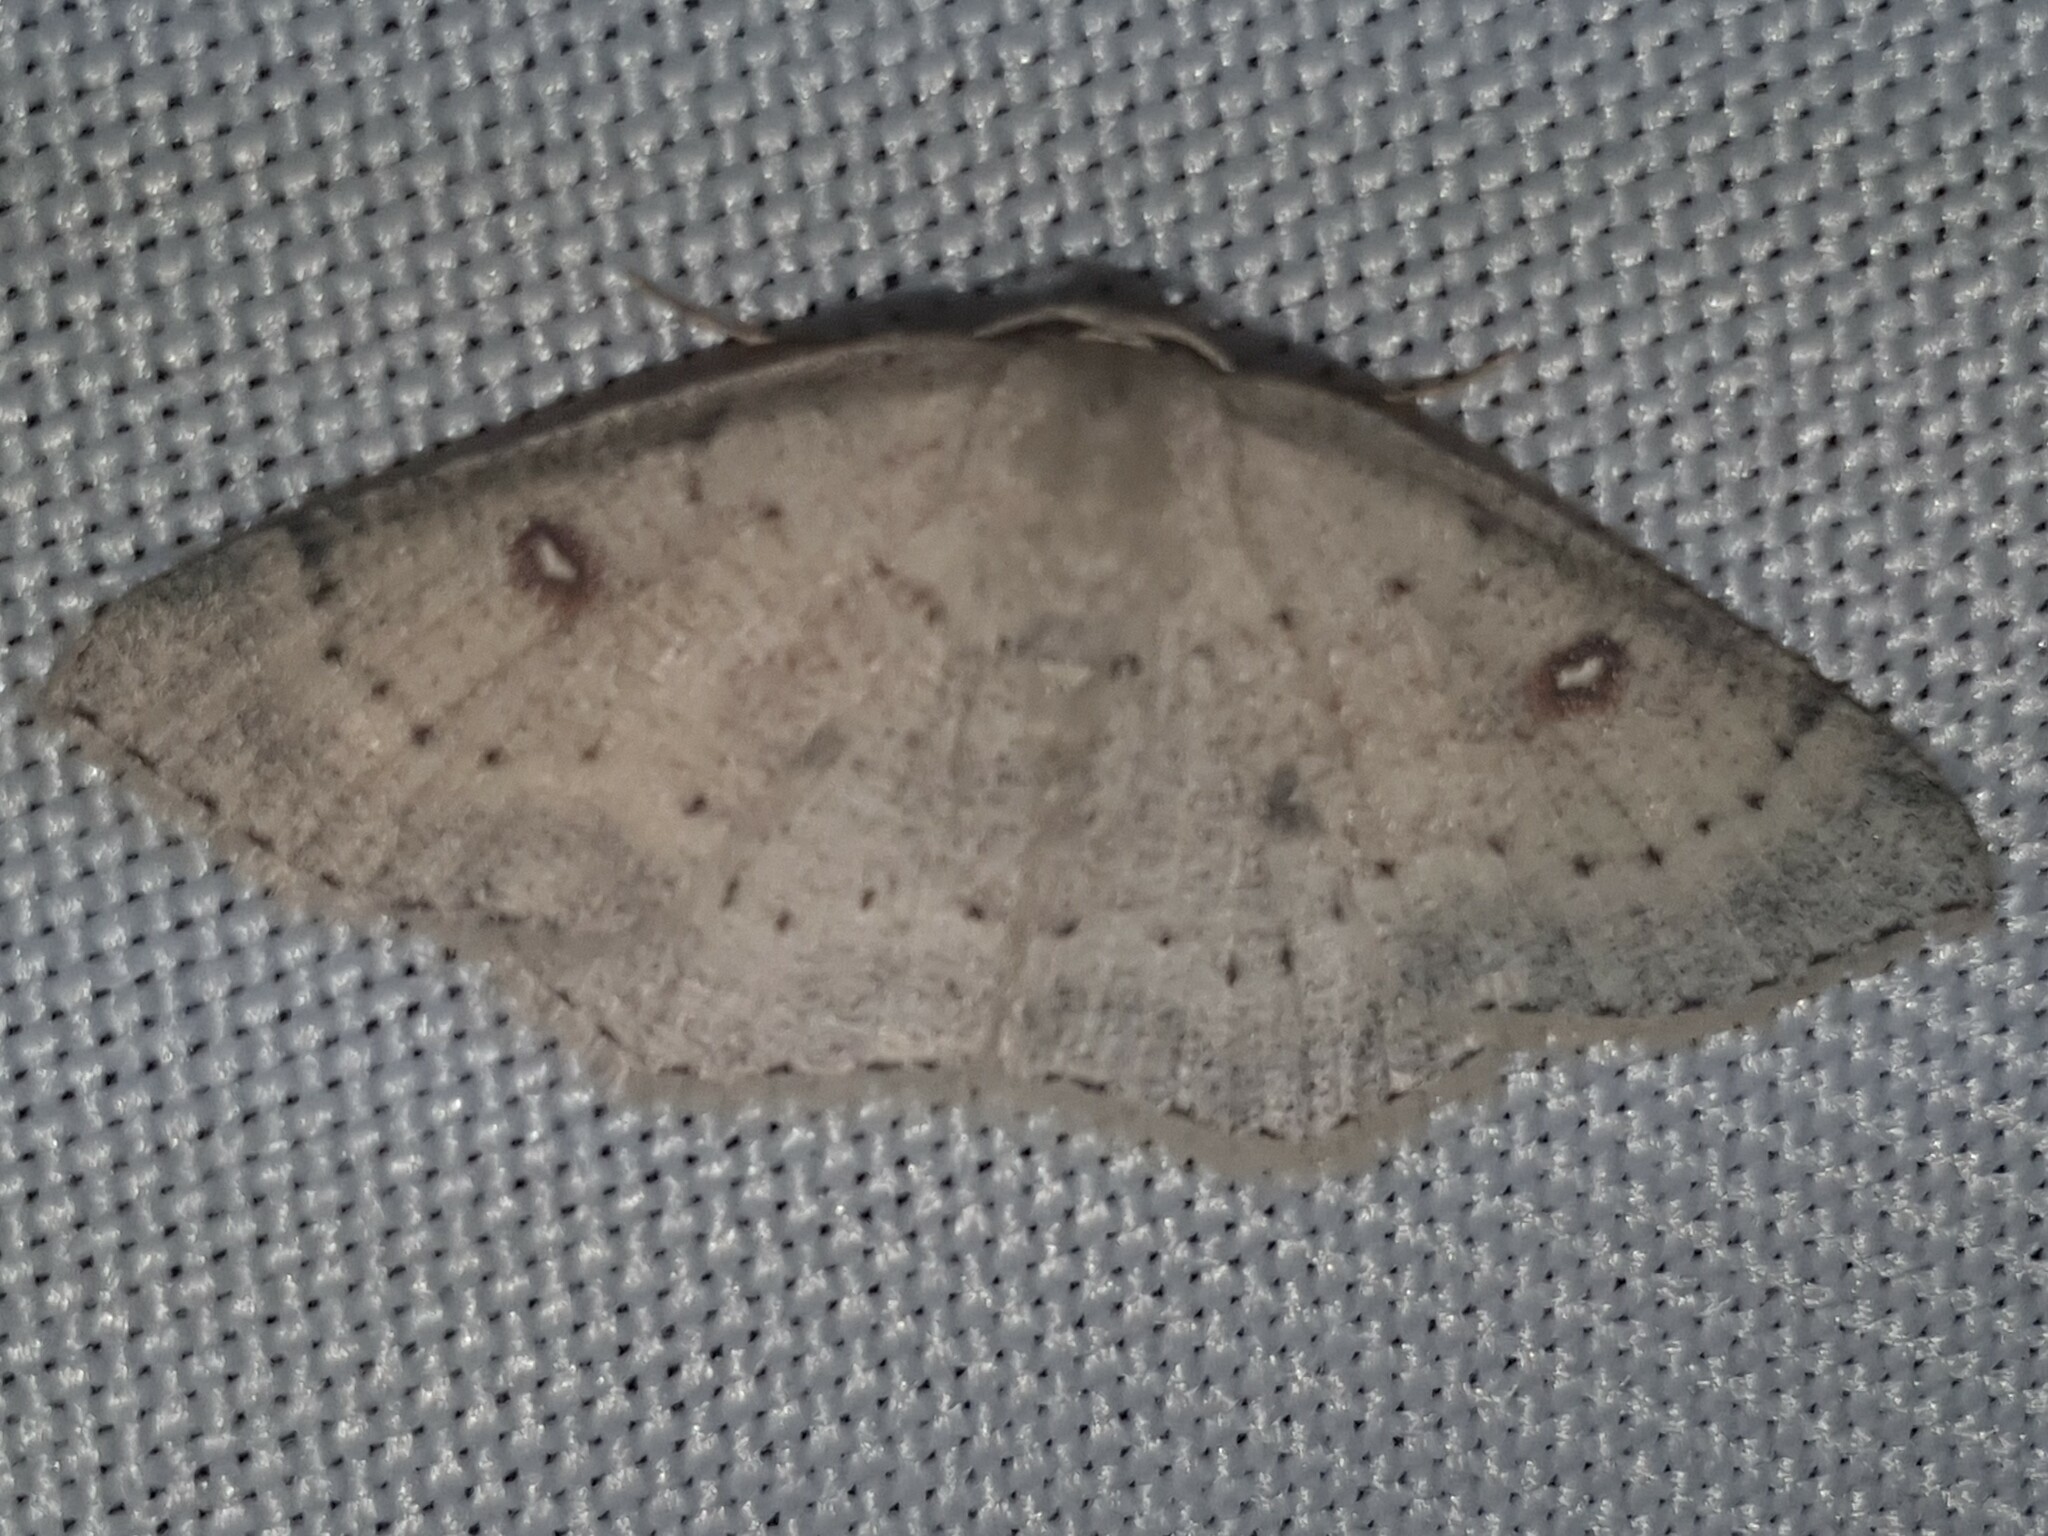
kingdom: Animalia
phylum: Arthropoda
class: Insecta
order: Lepidoptera
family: Geometridae
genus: Cyclophora
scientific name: Cyclophora albipunctata
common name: Birch mocha
